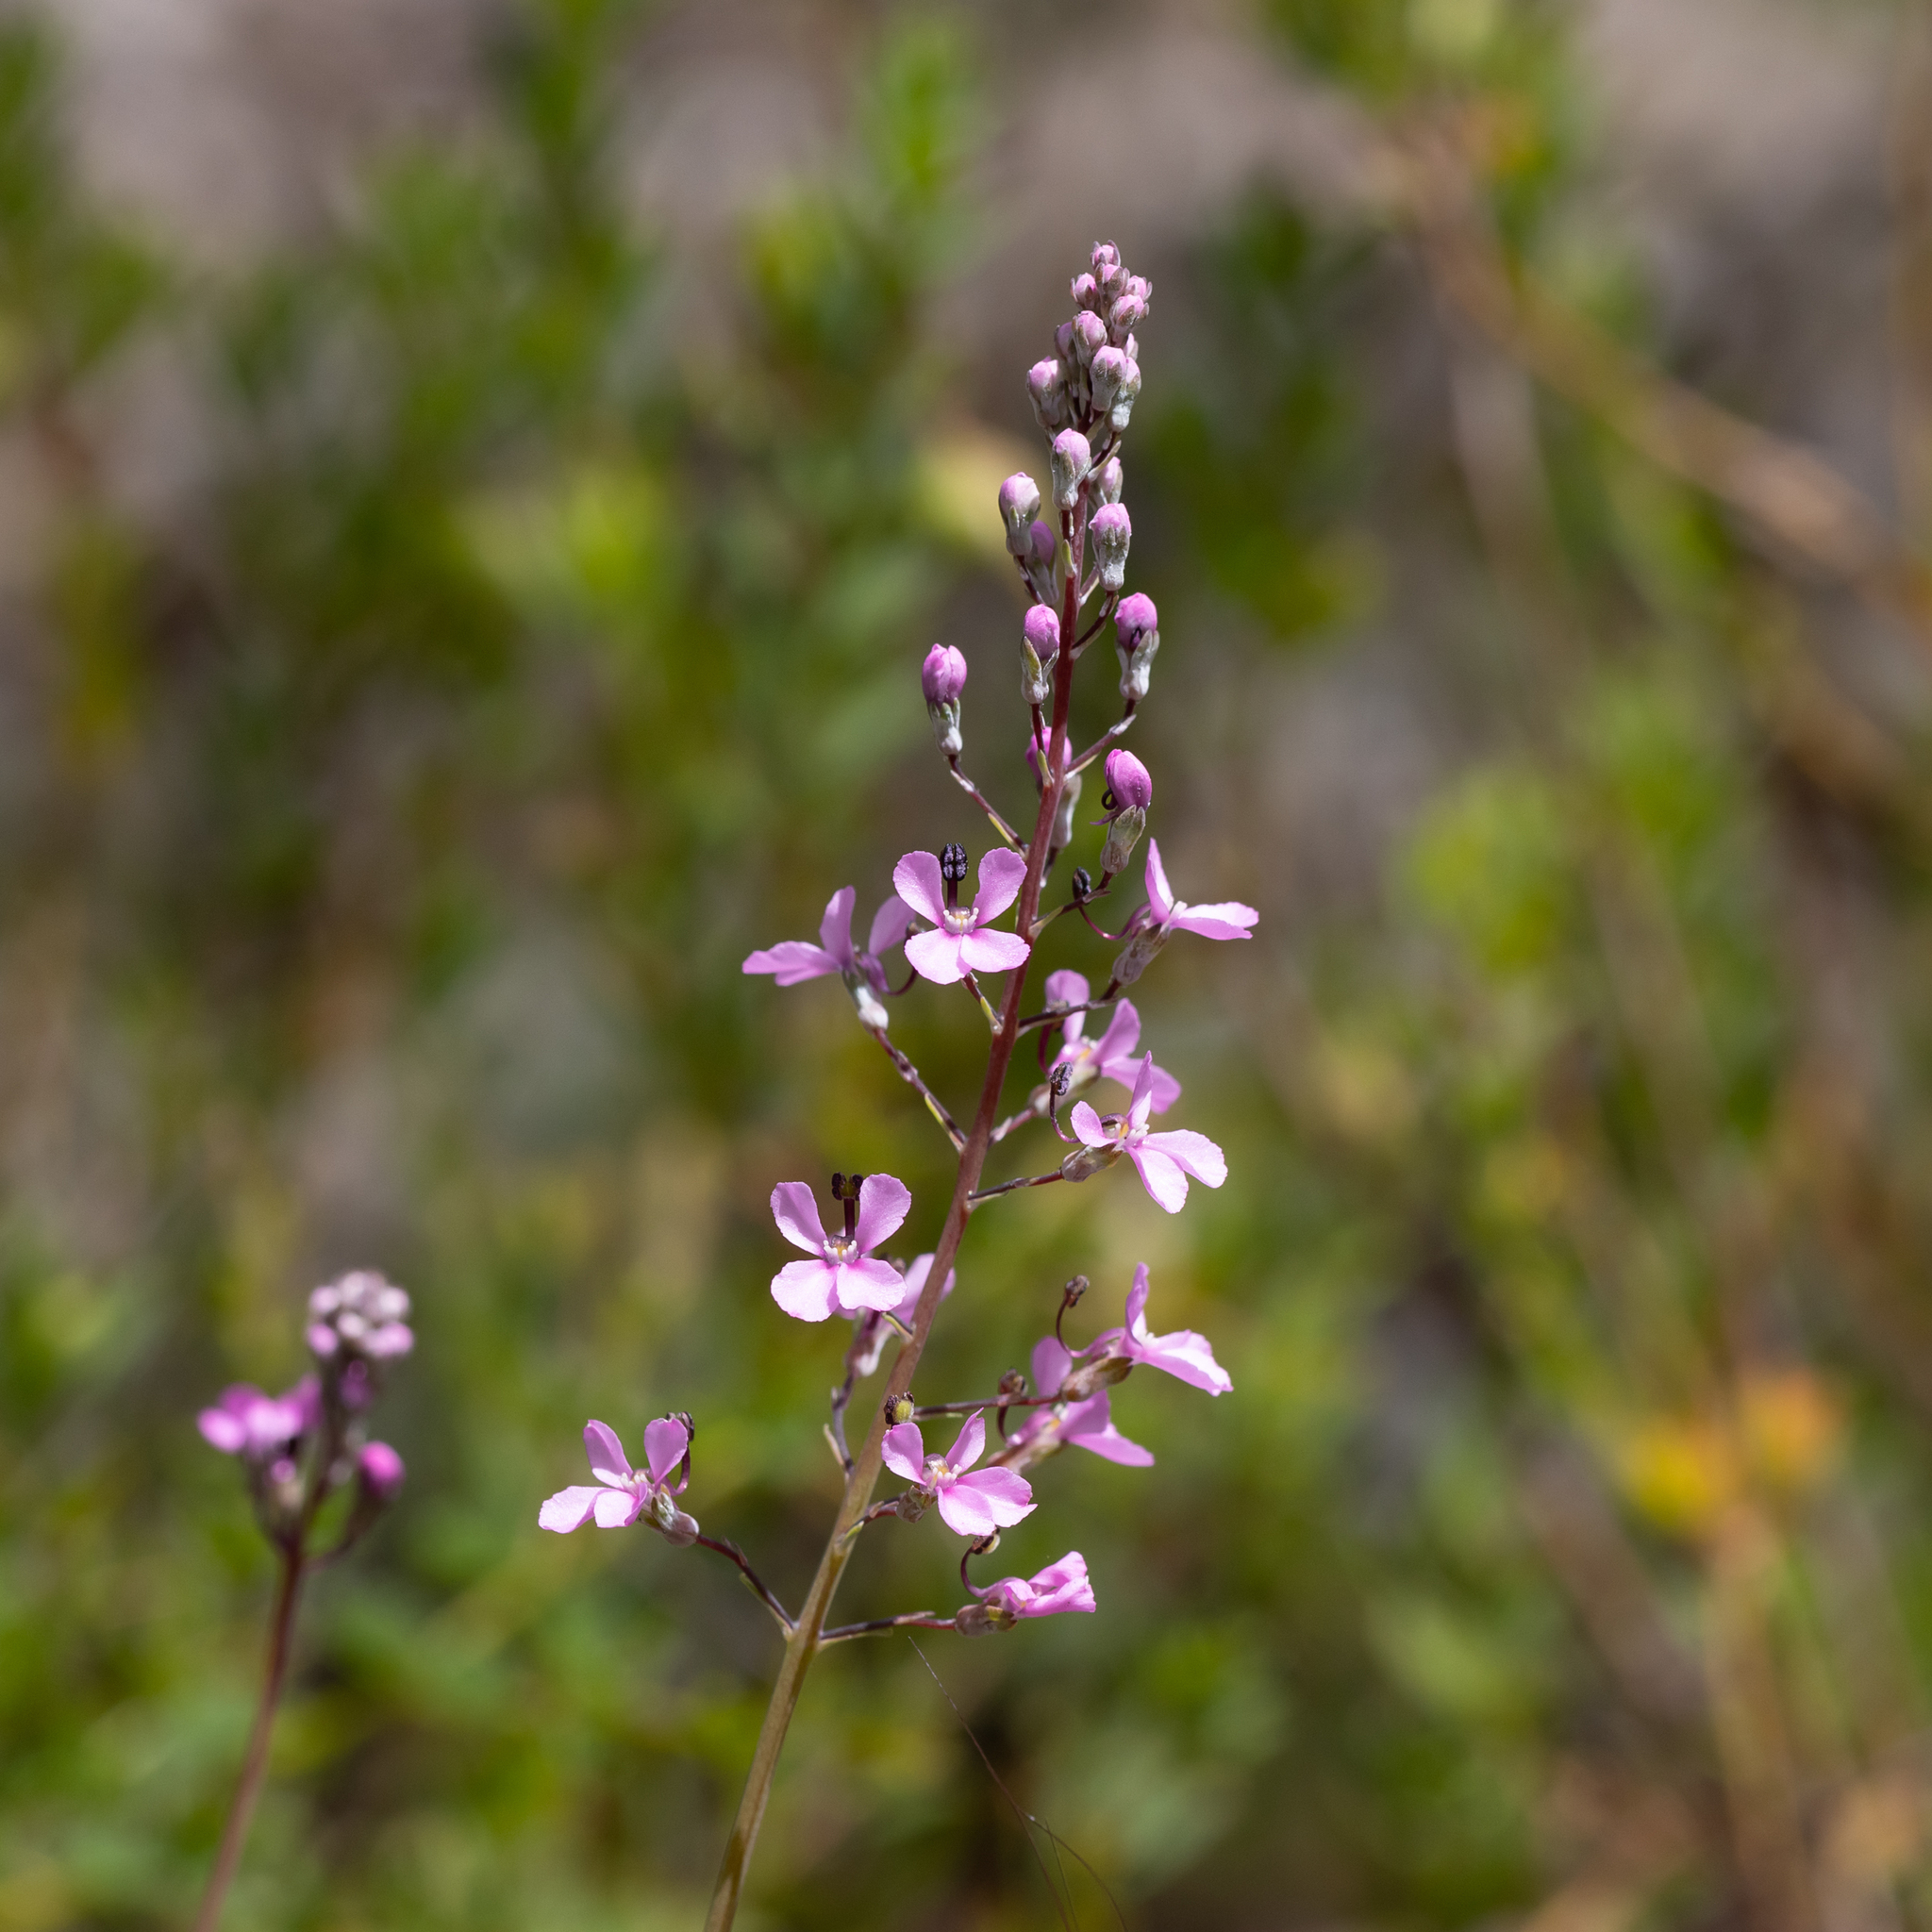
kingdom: Plantae
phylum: Tracheophyta
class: Magnoliopsida
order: Asterales
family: Stylidiaceae
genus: Stylidium
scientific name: Stylidium tenue
